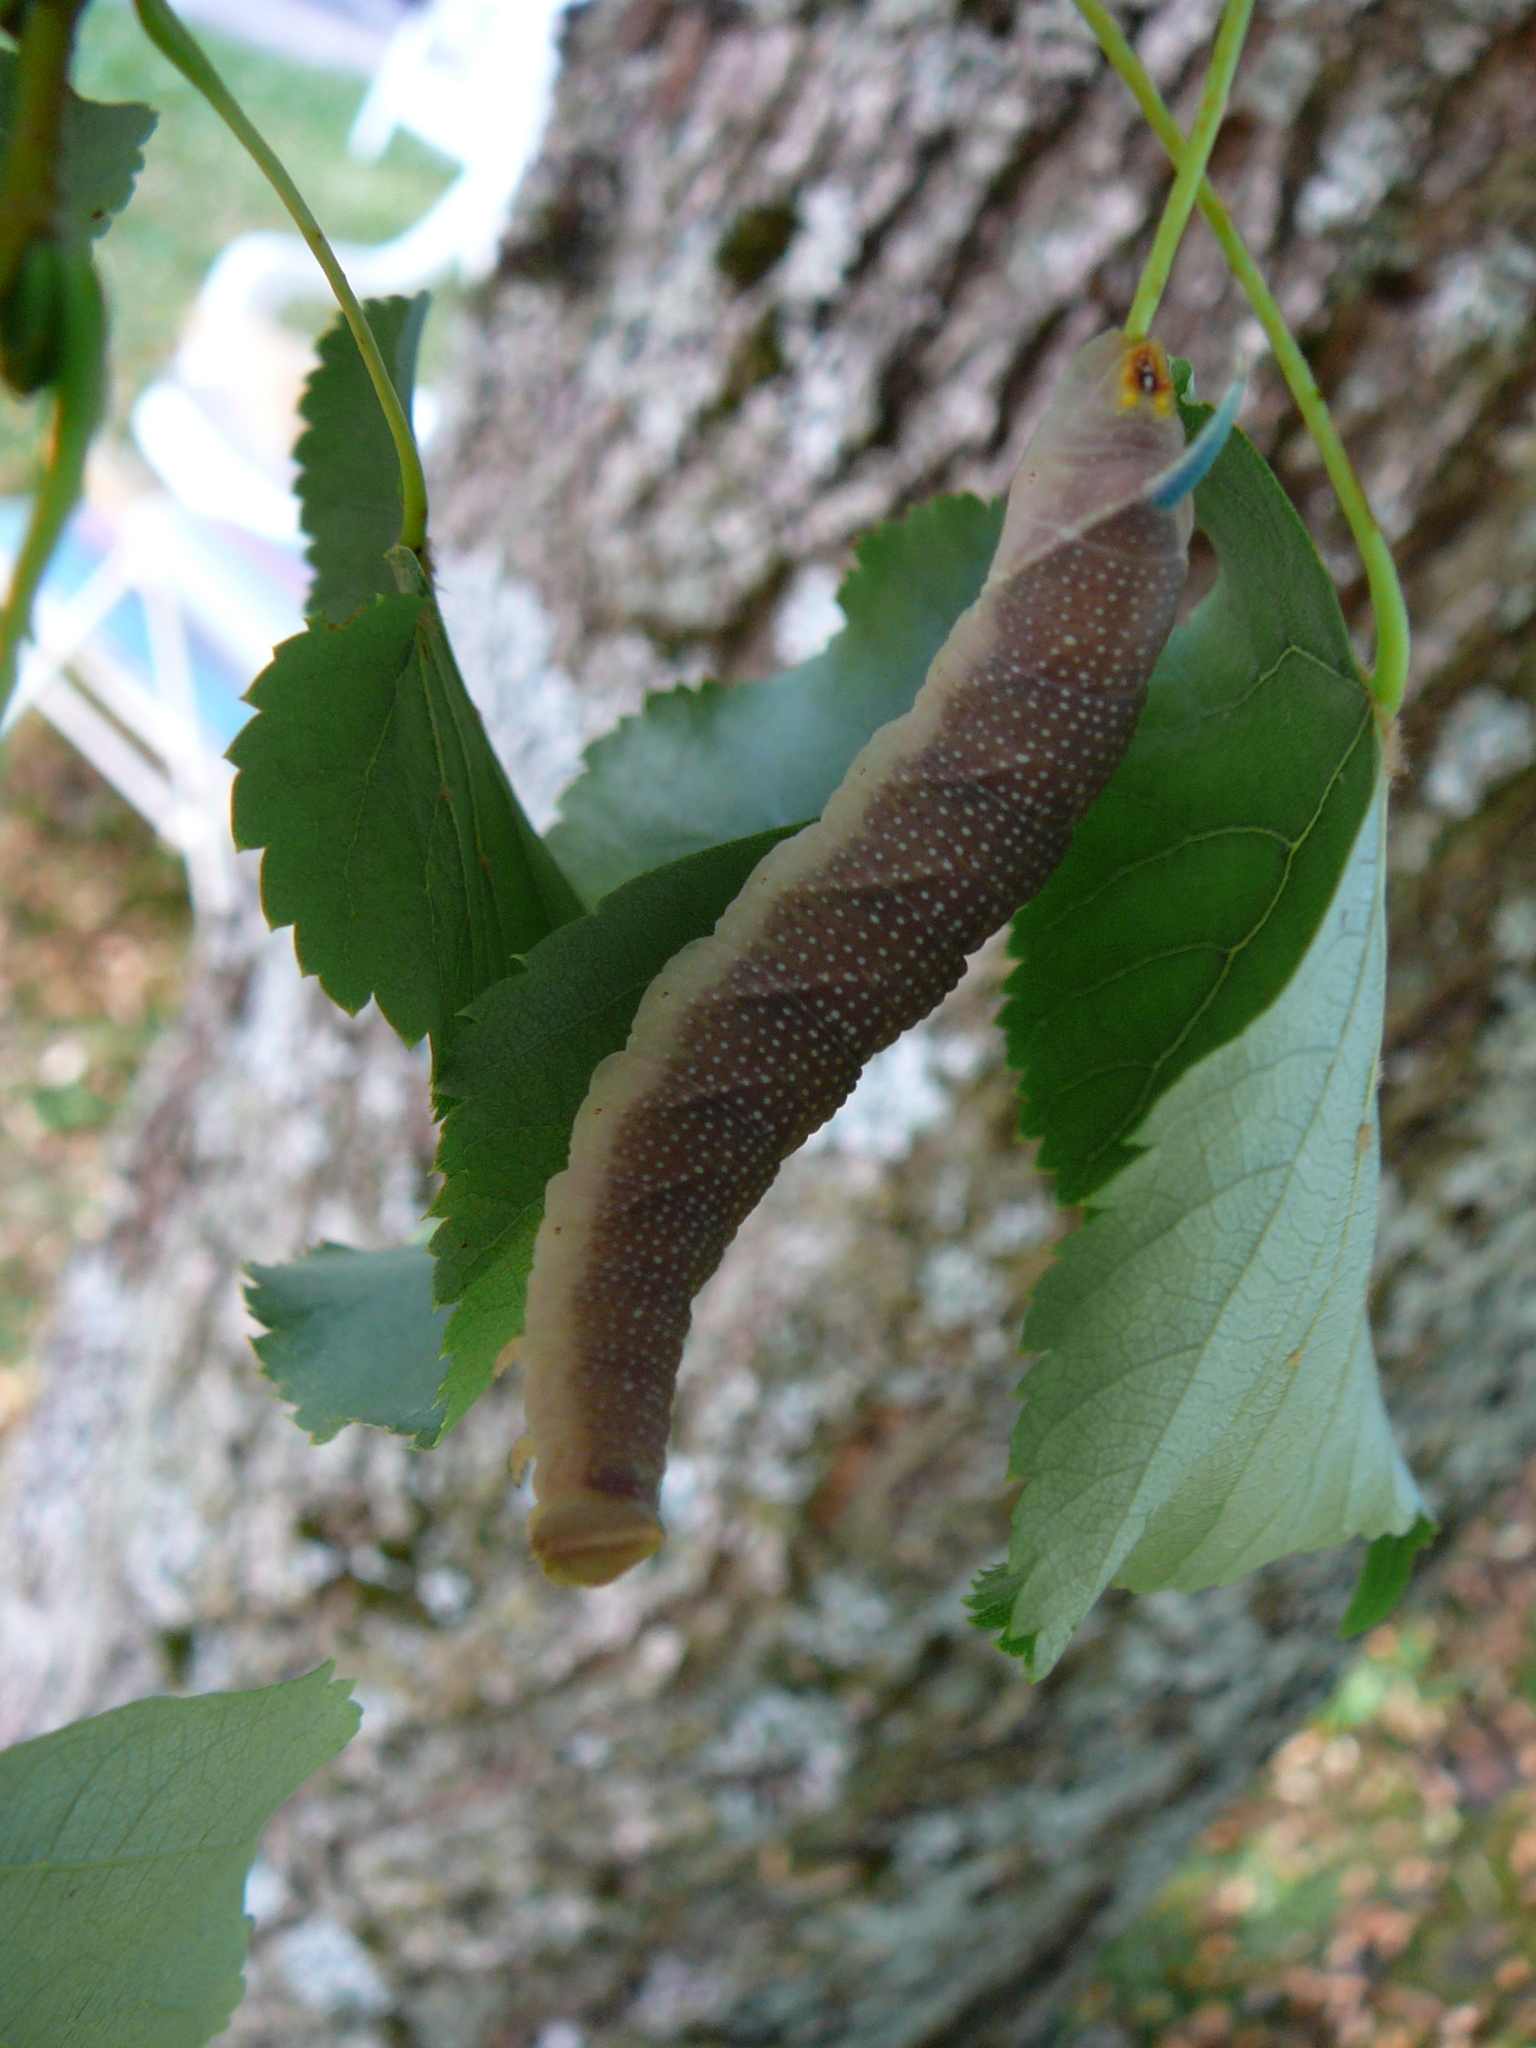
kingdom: Animalia
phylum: Arthropoda
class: Insecta
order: Lepidoptera
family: Sphingidae
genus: Mimas
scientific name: Mimas tiliae
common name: Lime hawk-moth
